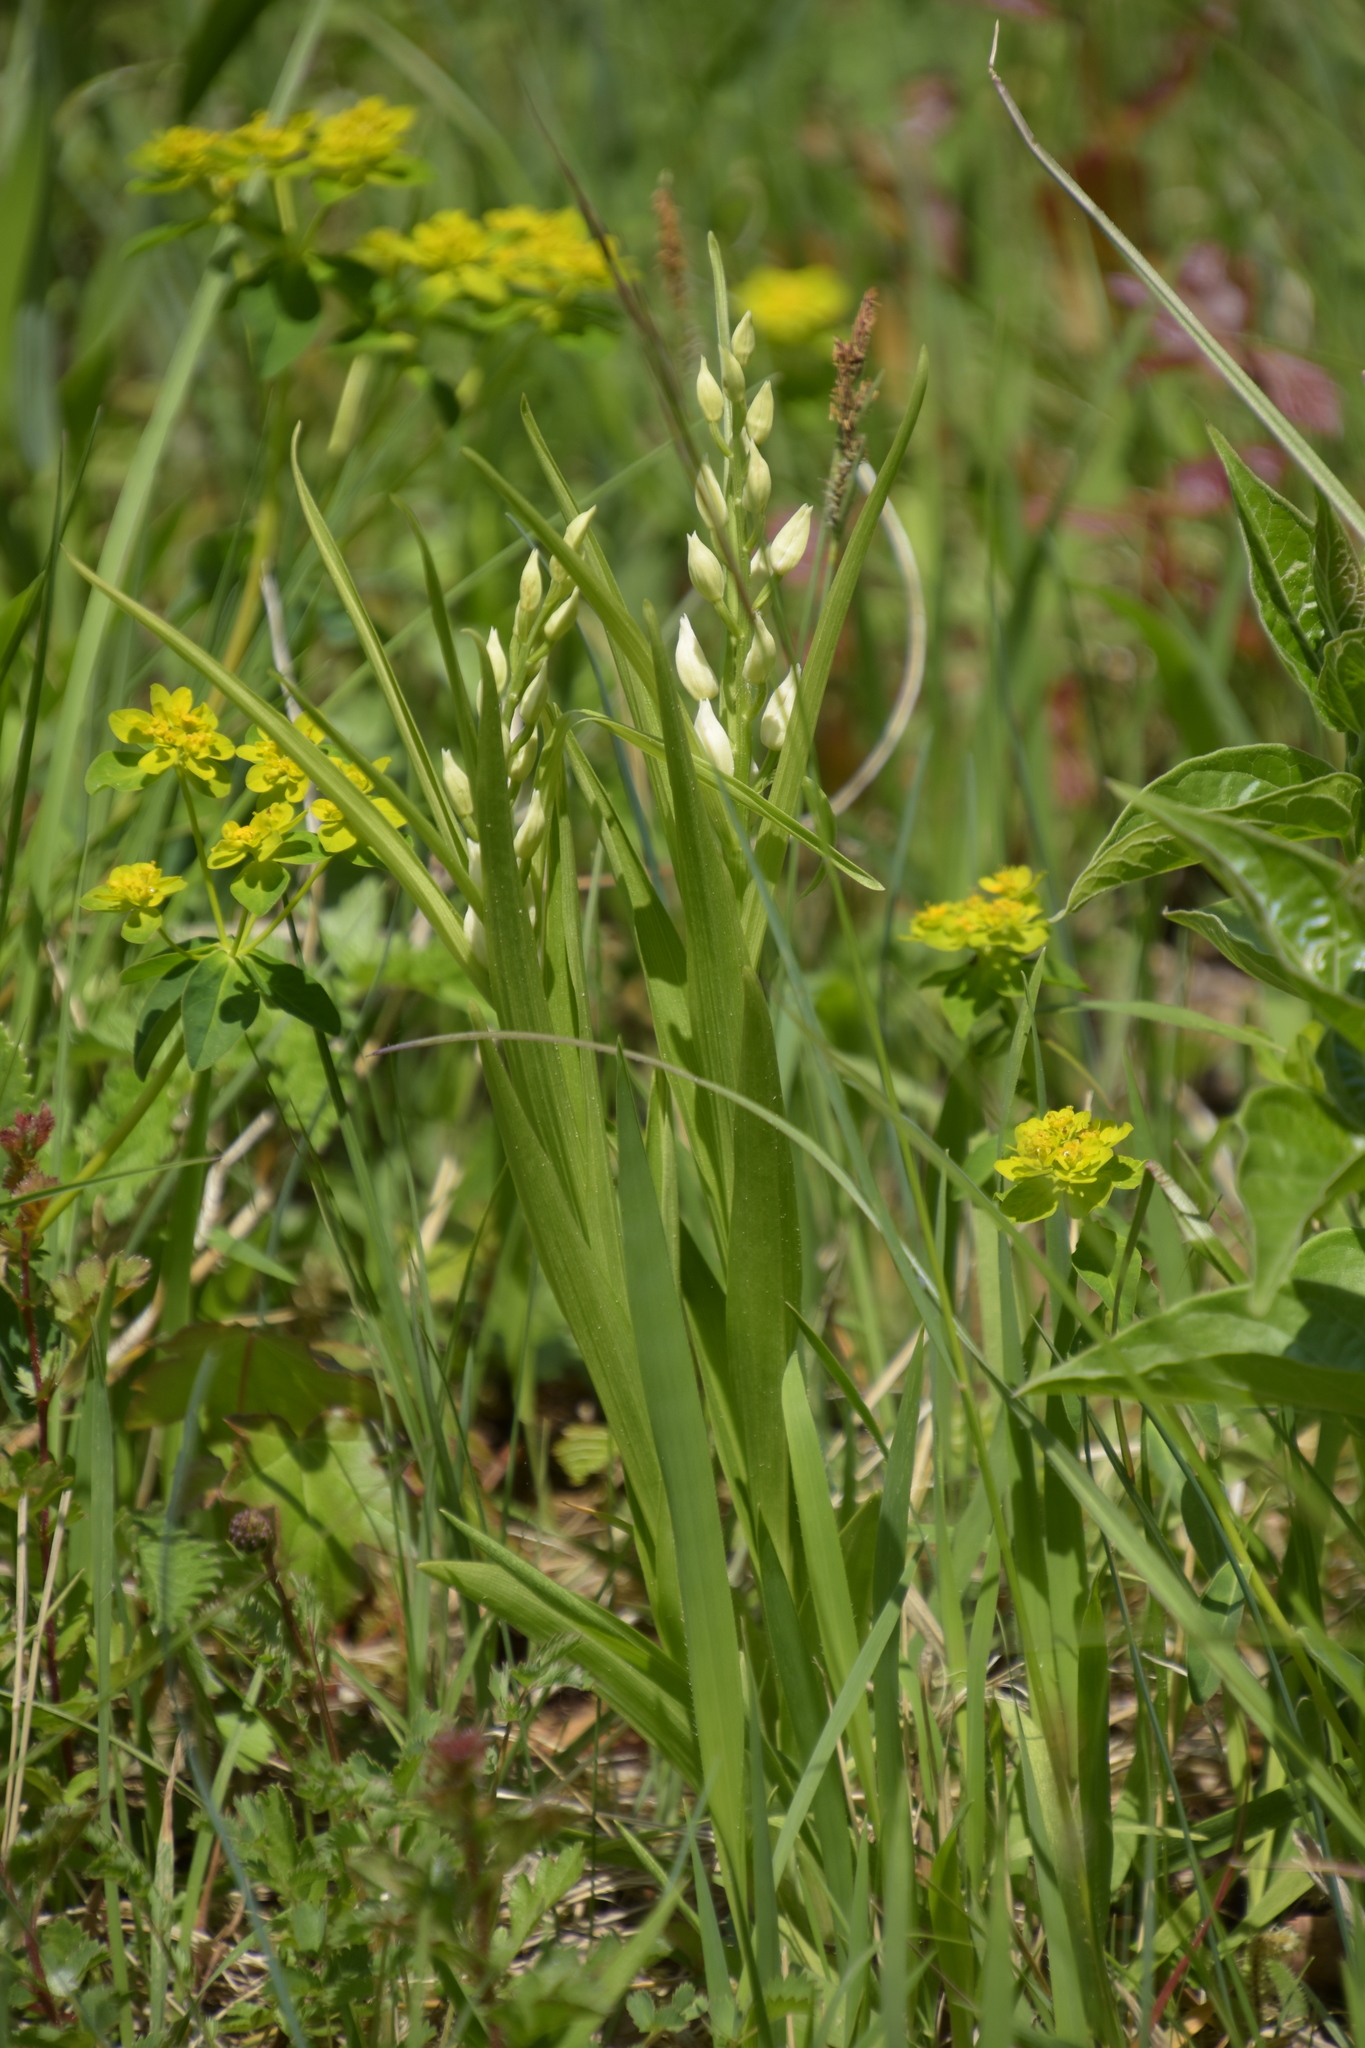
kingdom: Plantae
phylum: Tracheophyta
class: Liliopsida
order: Asparagales
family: Orchidaceae
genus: Cephalanthera
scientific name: Cephalanthera longifolia
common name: Narrow-leaved helleborine
